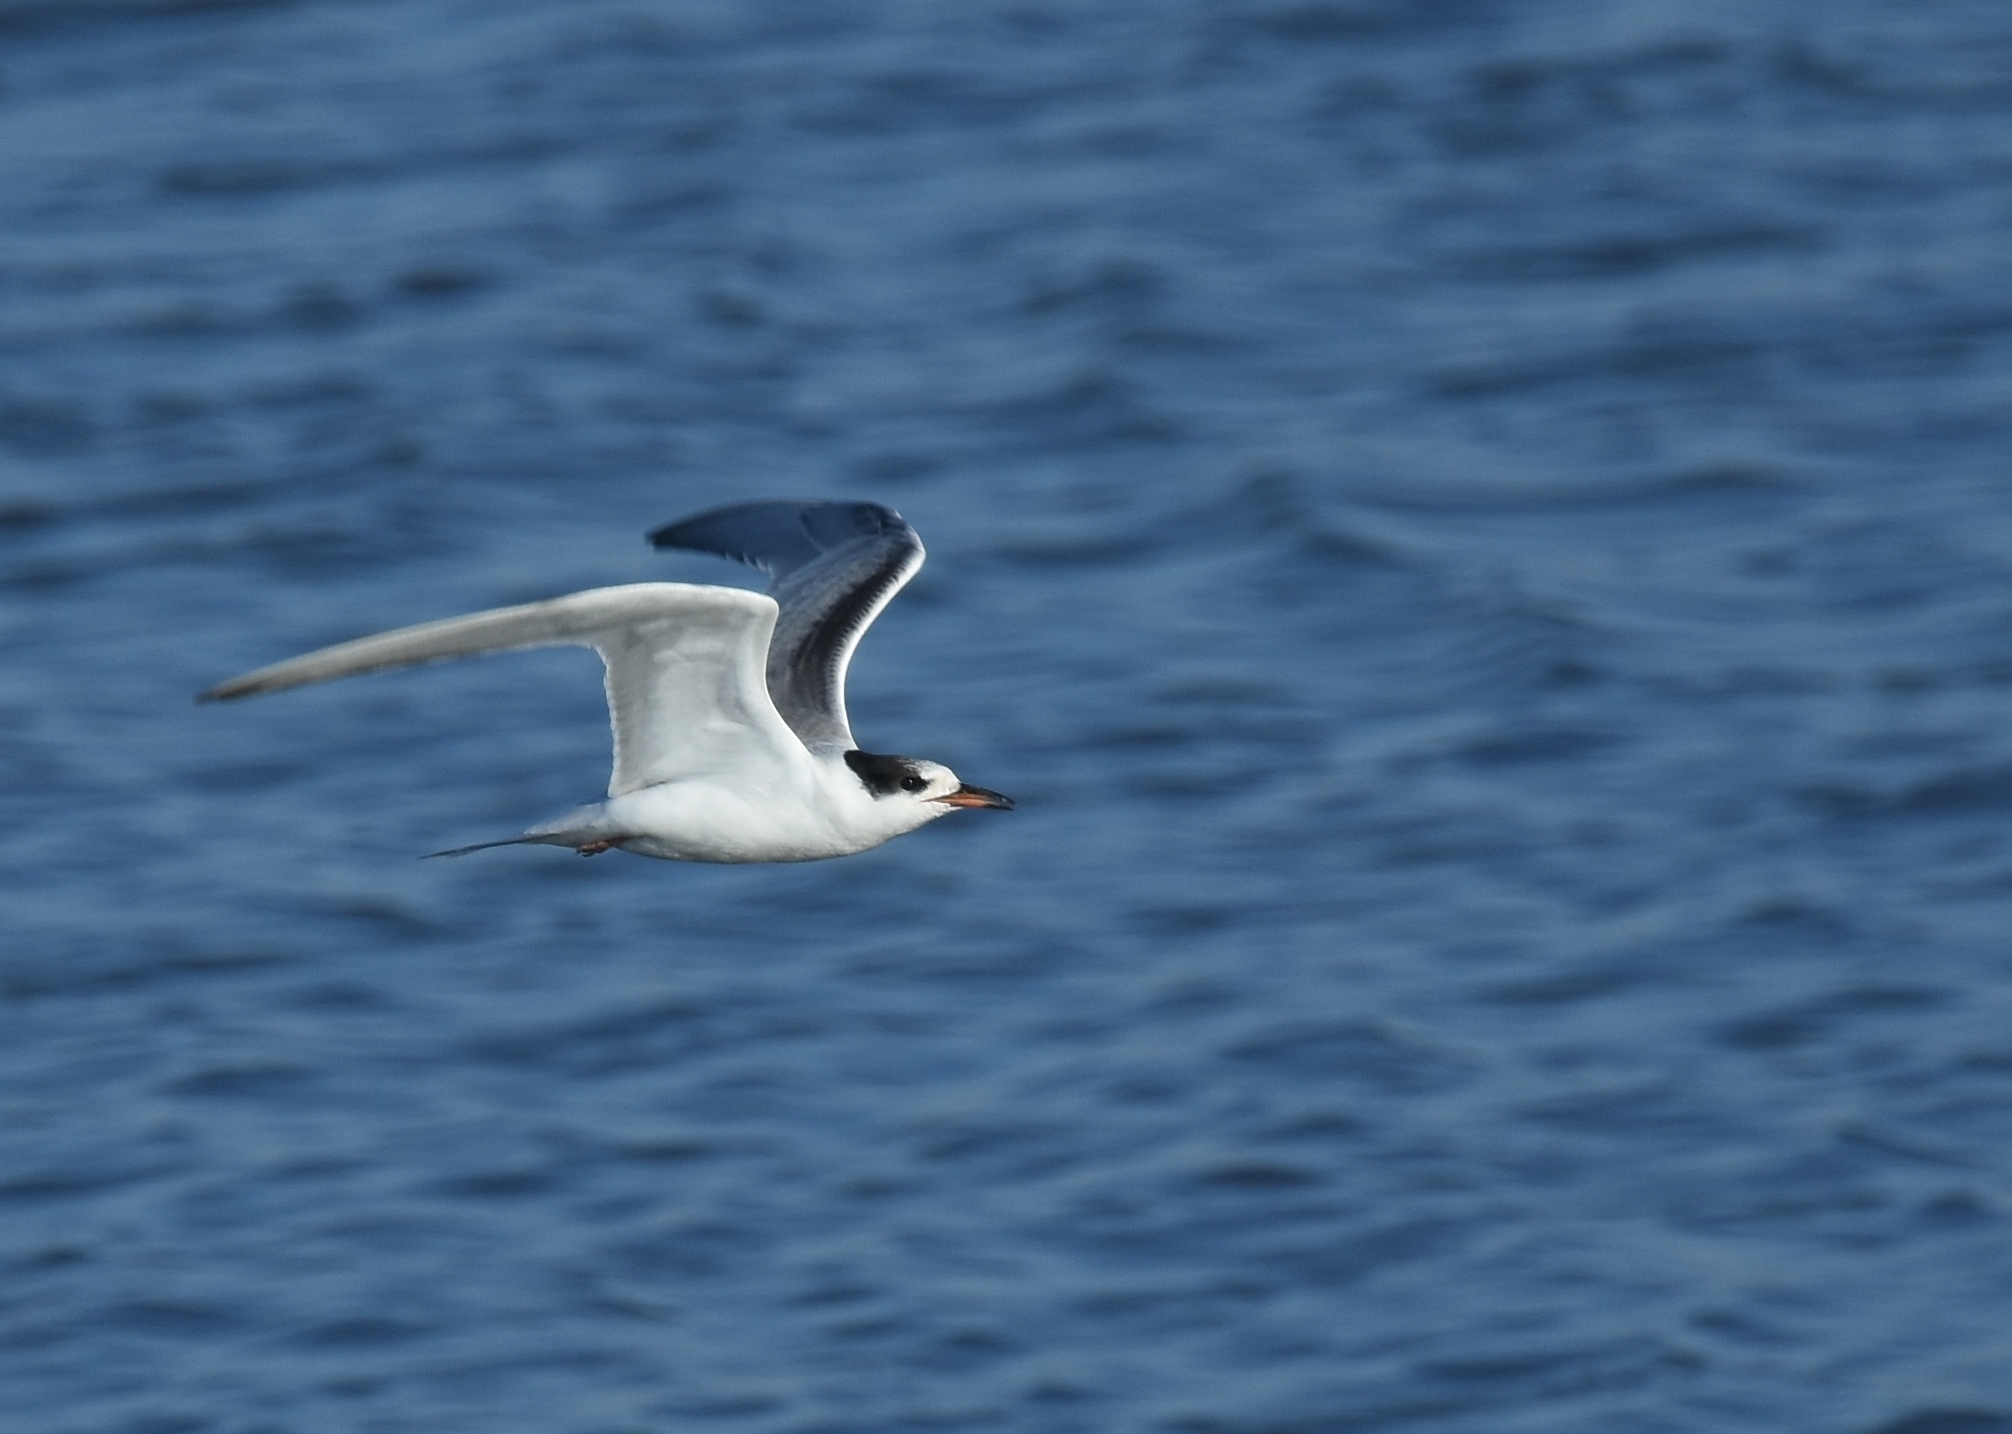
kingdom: Animalia
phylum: Chordata
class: Aves
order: Charadriiformes
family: Laridae
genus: Sterna
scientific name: Sterna hirundo
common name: Common tern
